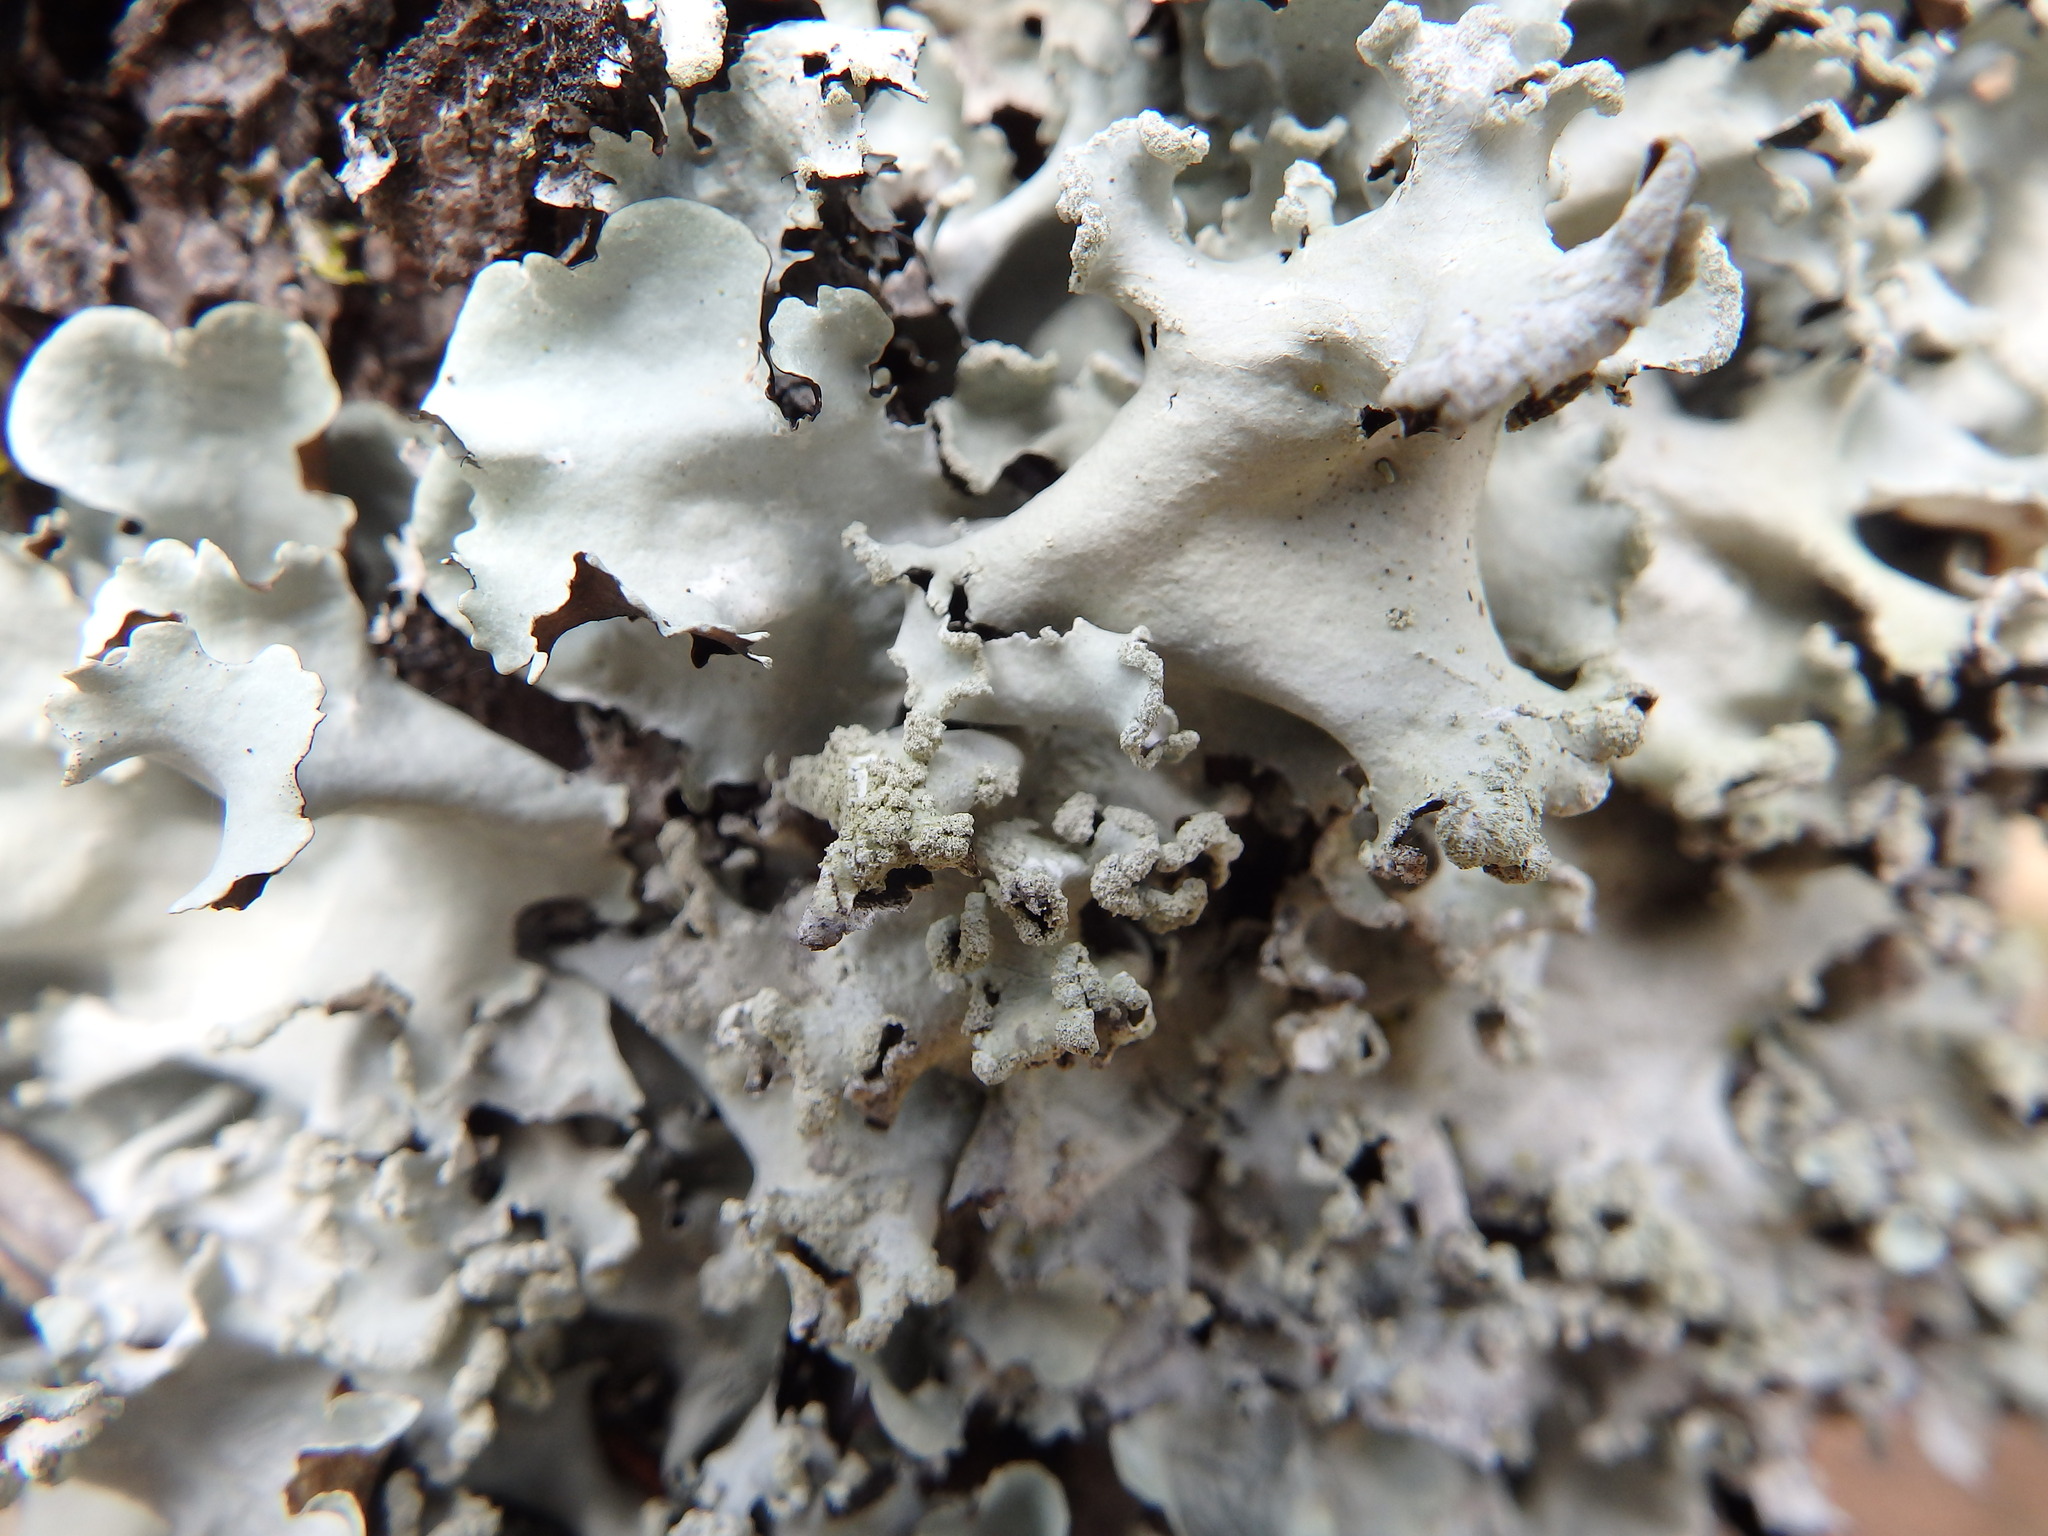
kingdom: Fungi
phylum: Ascomycota
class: Lecanoromycetes
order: Lecanorales
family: Parmeliaceae
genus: Parmotrema
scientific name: Parmotrema perlatum
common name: Black stone flower
